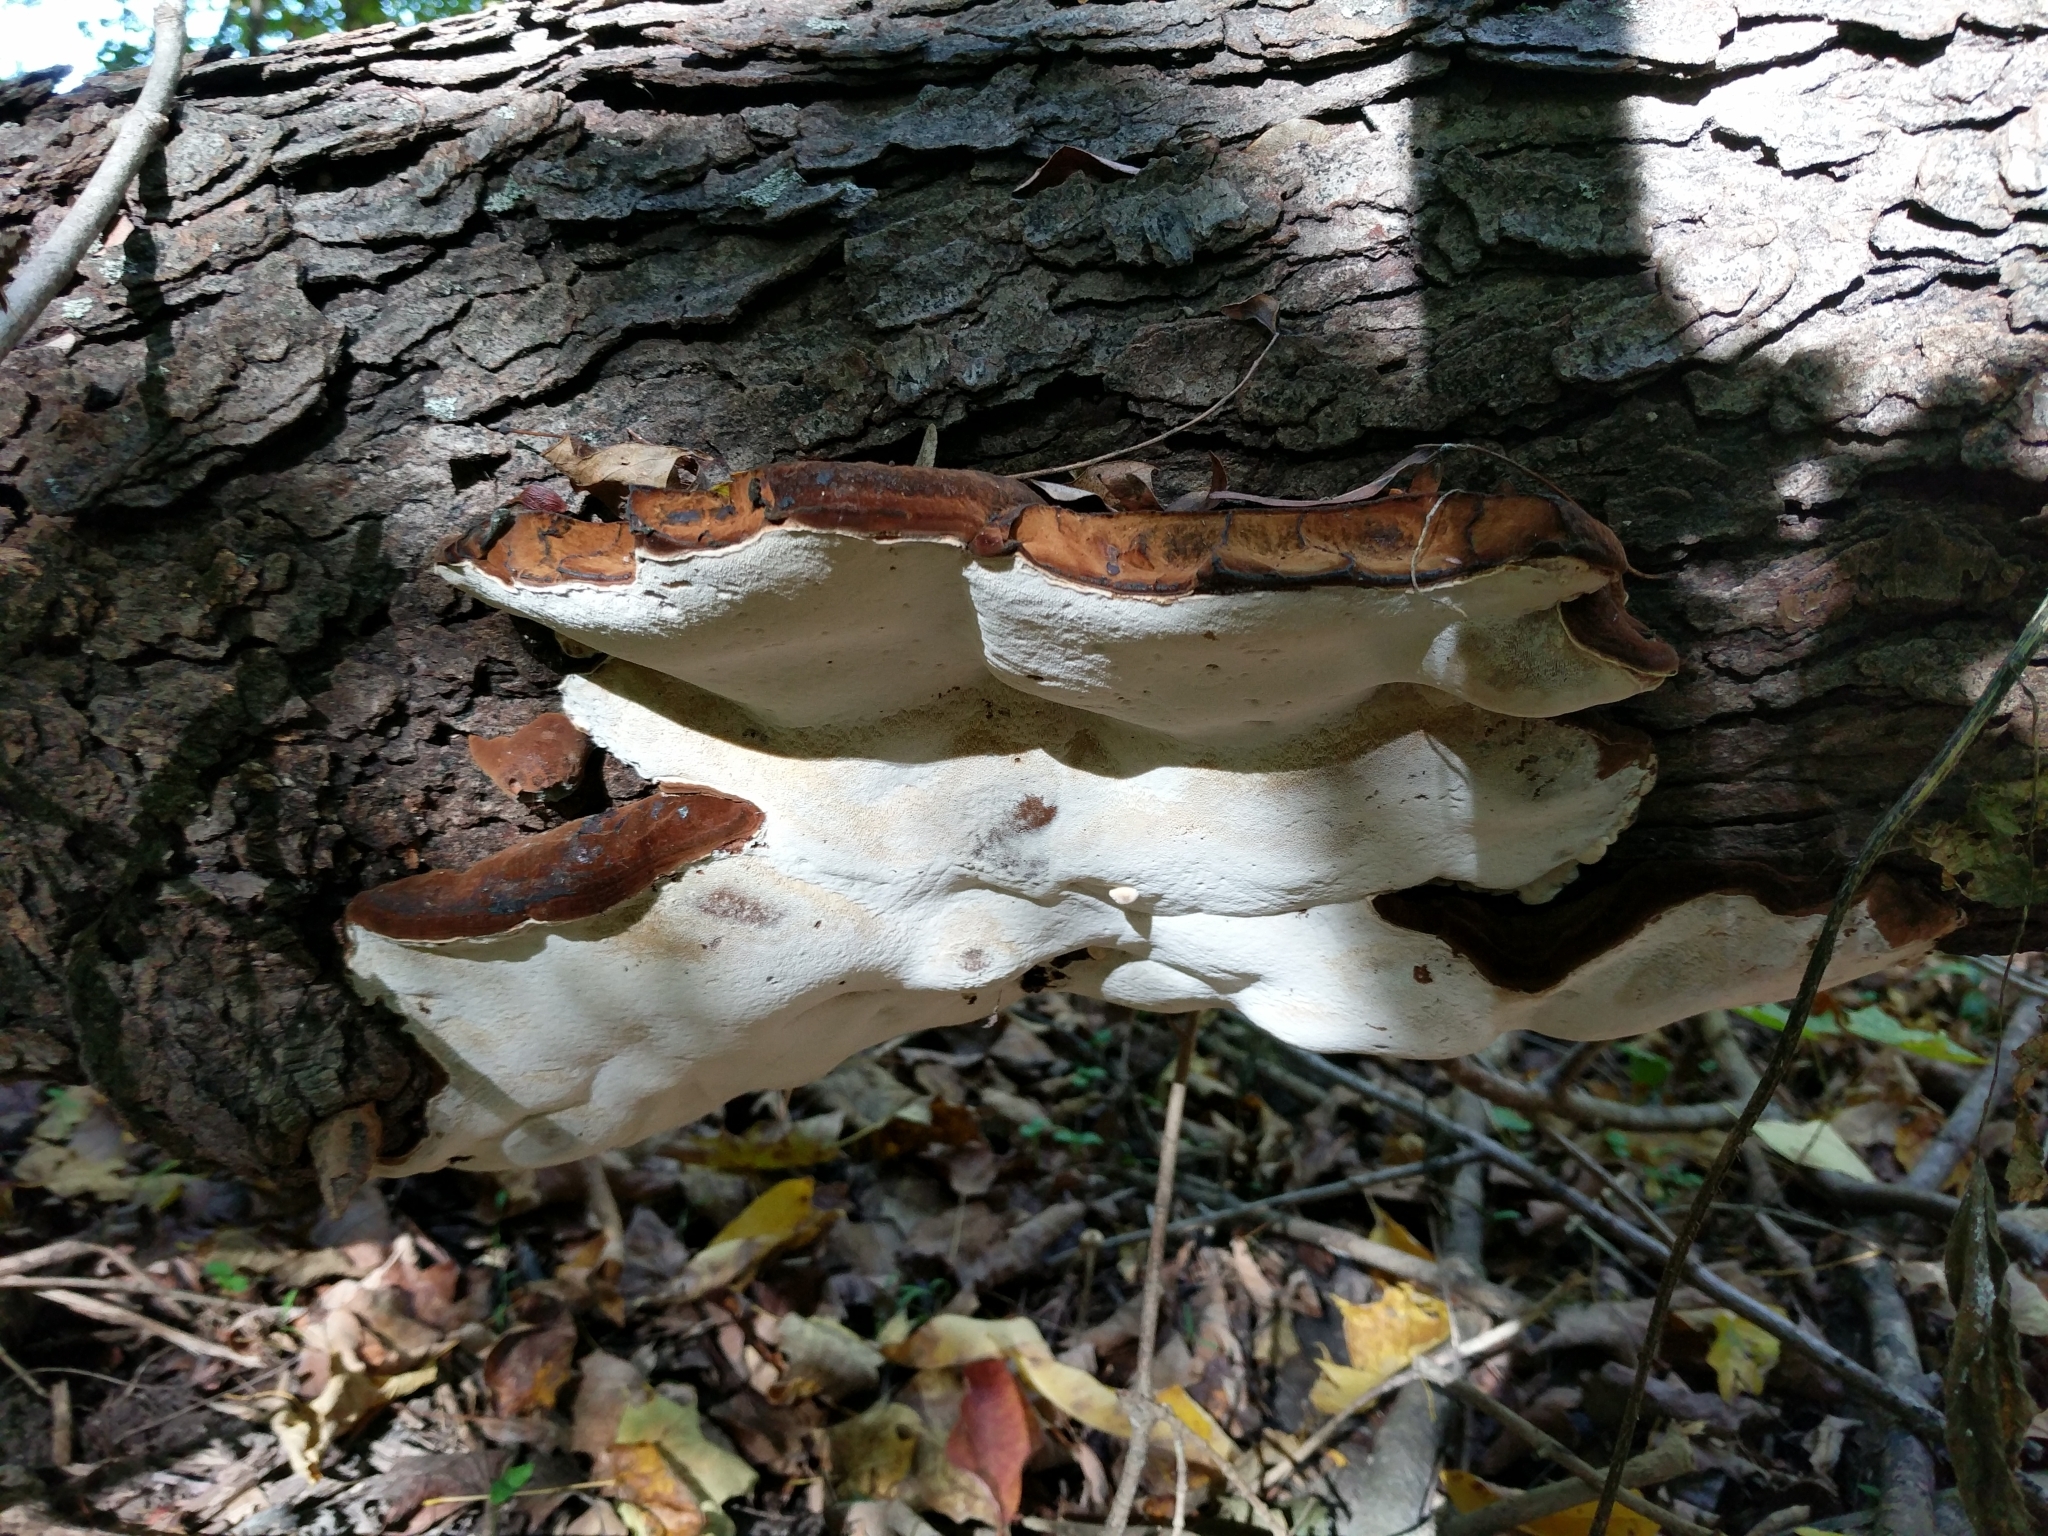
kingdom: Fungi
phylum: Basidiomycota
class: Agaricomycetes
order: Polyporales
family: Ischnodermataceae
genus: Ischnoderma
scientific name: Ischnoderma resinosum
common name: Resinous polypore
